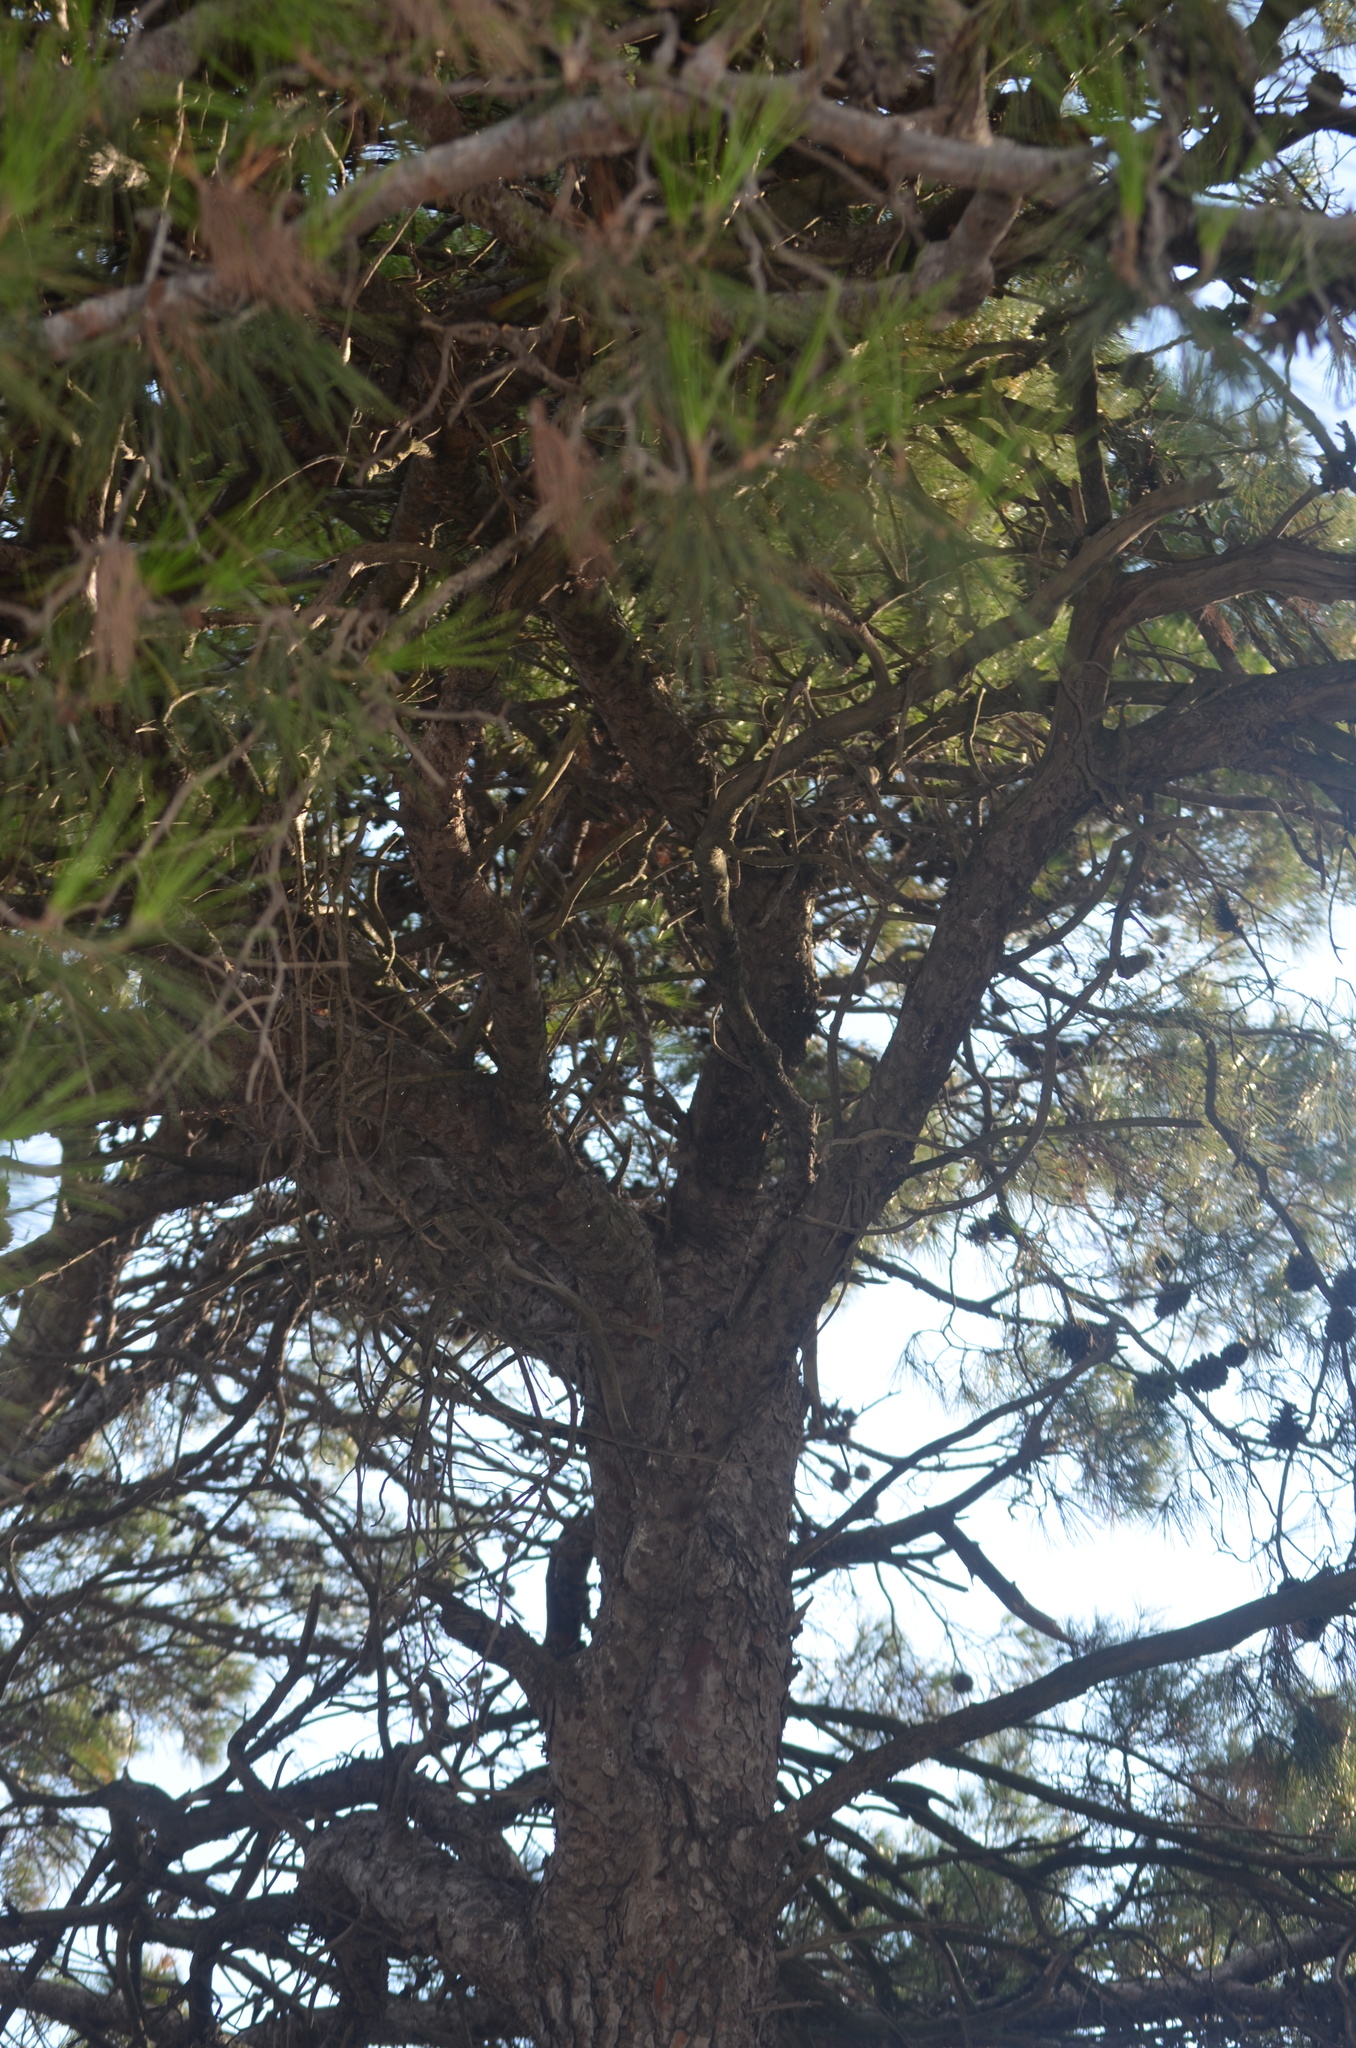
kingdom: Plantae
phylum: Tracheophyta
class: Pinopsida
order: Pinales
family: Pinaceae
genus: Pinus
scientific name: Pinus halepensis
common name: Aleppo pine
